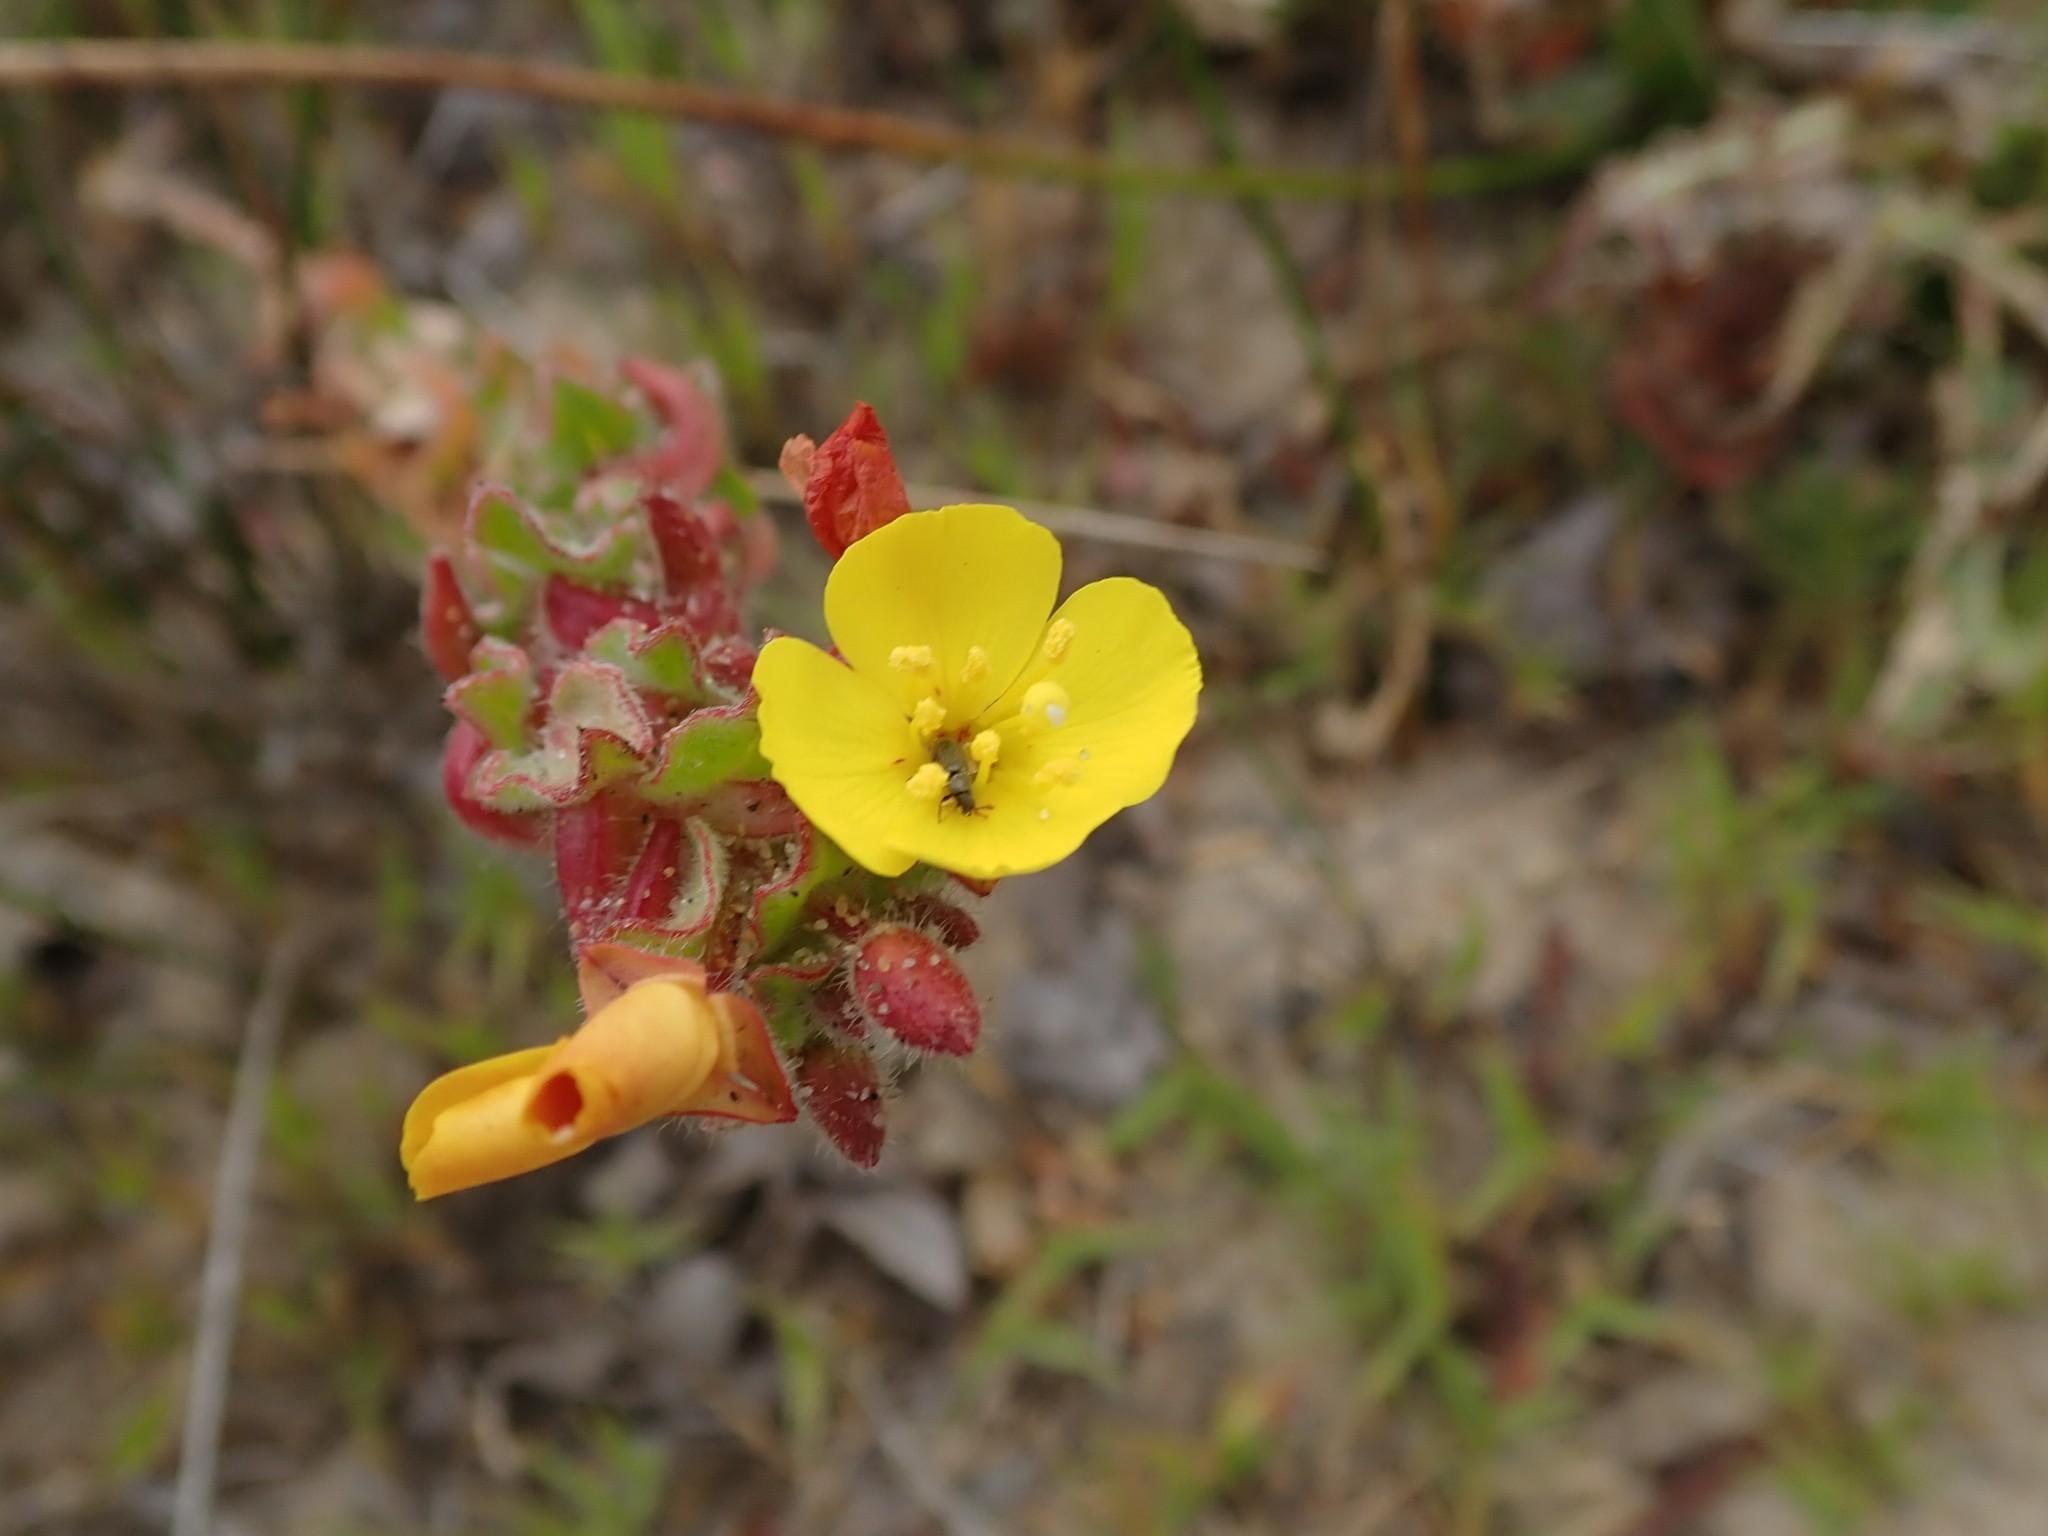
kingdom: Plantae
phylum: Tracheophyta
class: Magnoliopsida
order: Myrtales
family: Onagraceae
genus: Camissoniopsis
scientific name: Camissoniopsis cheiranthifolia
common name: Beach suncup
